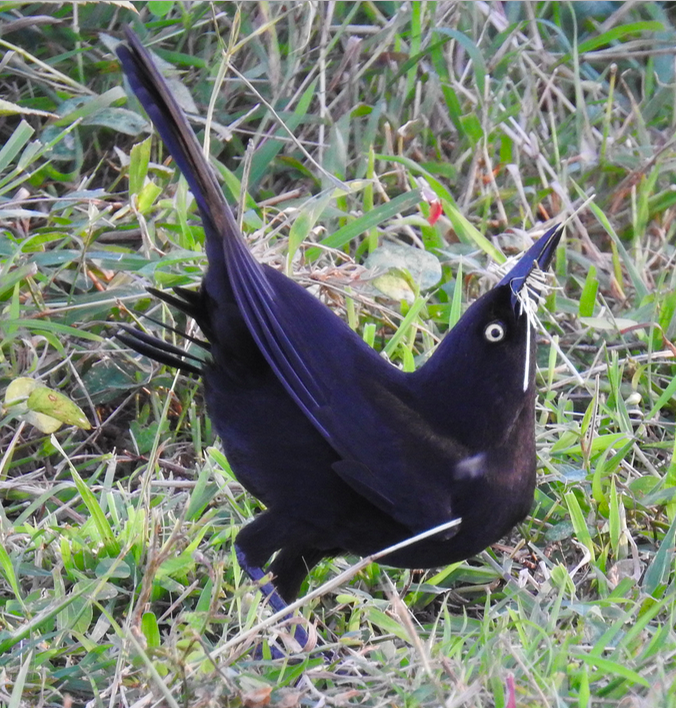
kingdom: Animalia
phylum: Chordata
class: Aves
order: Passeriformes
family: Icteridae
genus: Quiscalus
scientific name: Quiscalus lugubris
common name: Carib grackle
